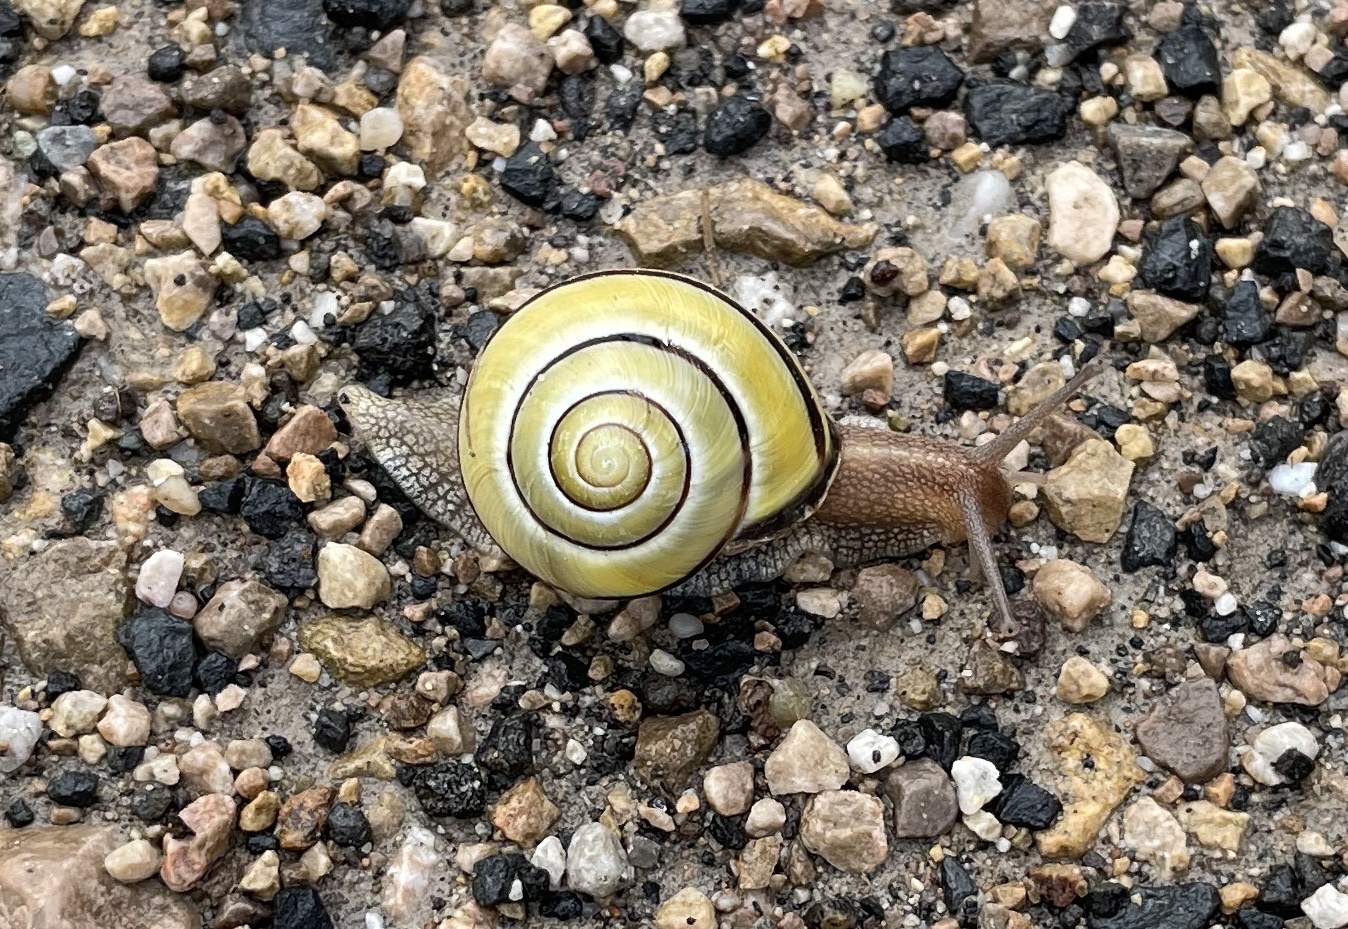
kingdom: Animalia
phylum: Mollusca
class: Gastropoda
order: Stylommatophora
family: Helicidae
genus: Cepaea
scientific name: Cepaea nemoralis
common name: Grovesnail
